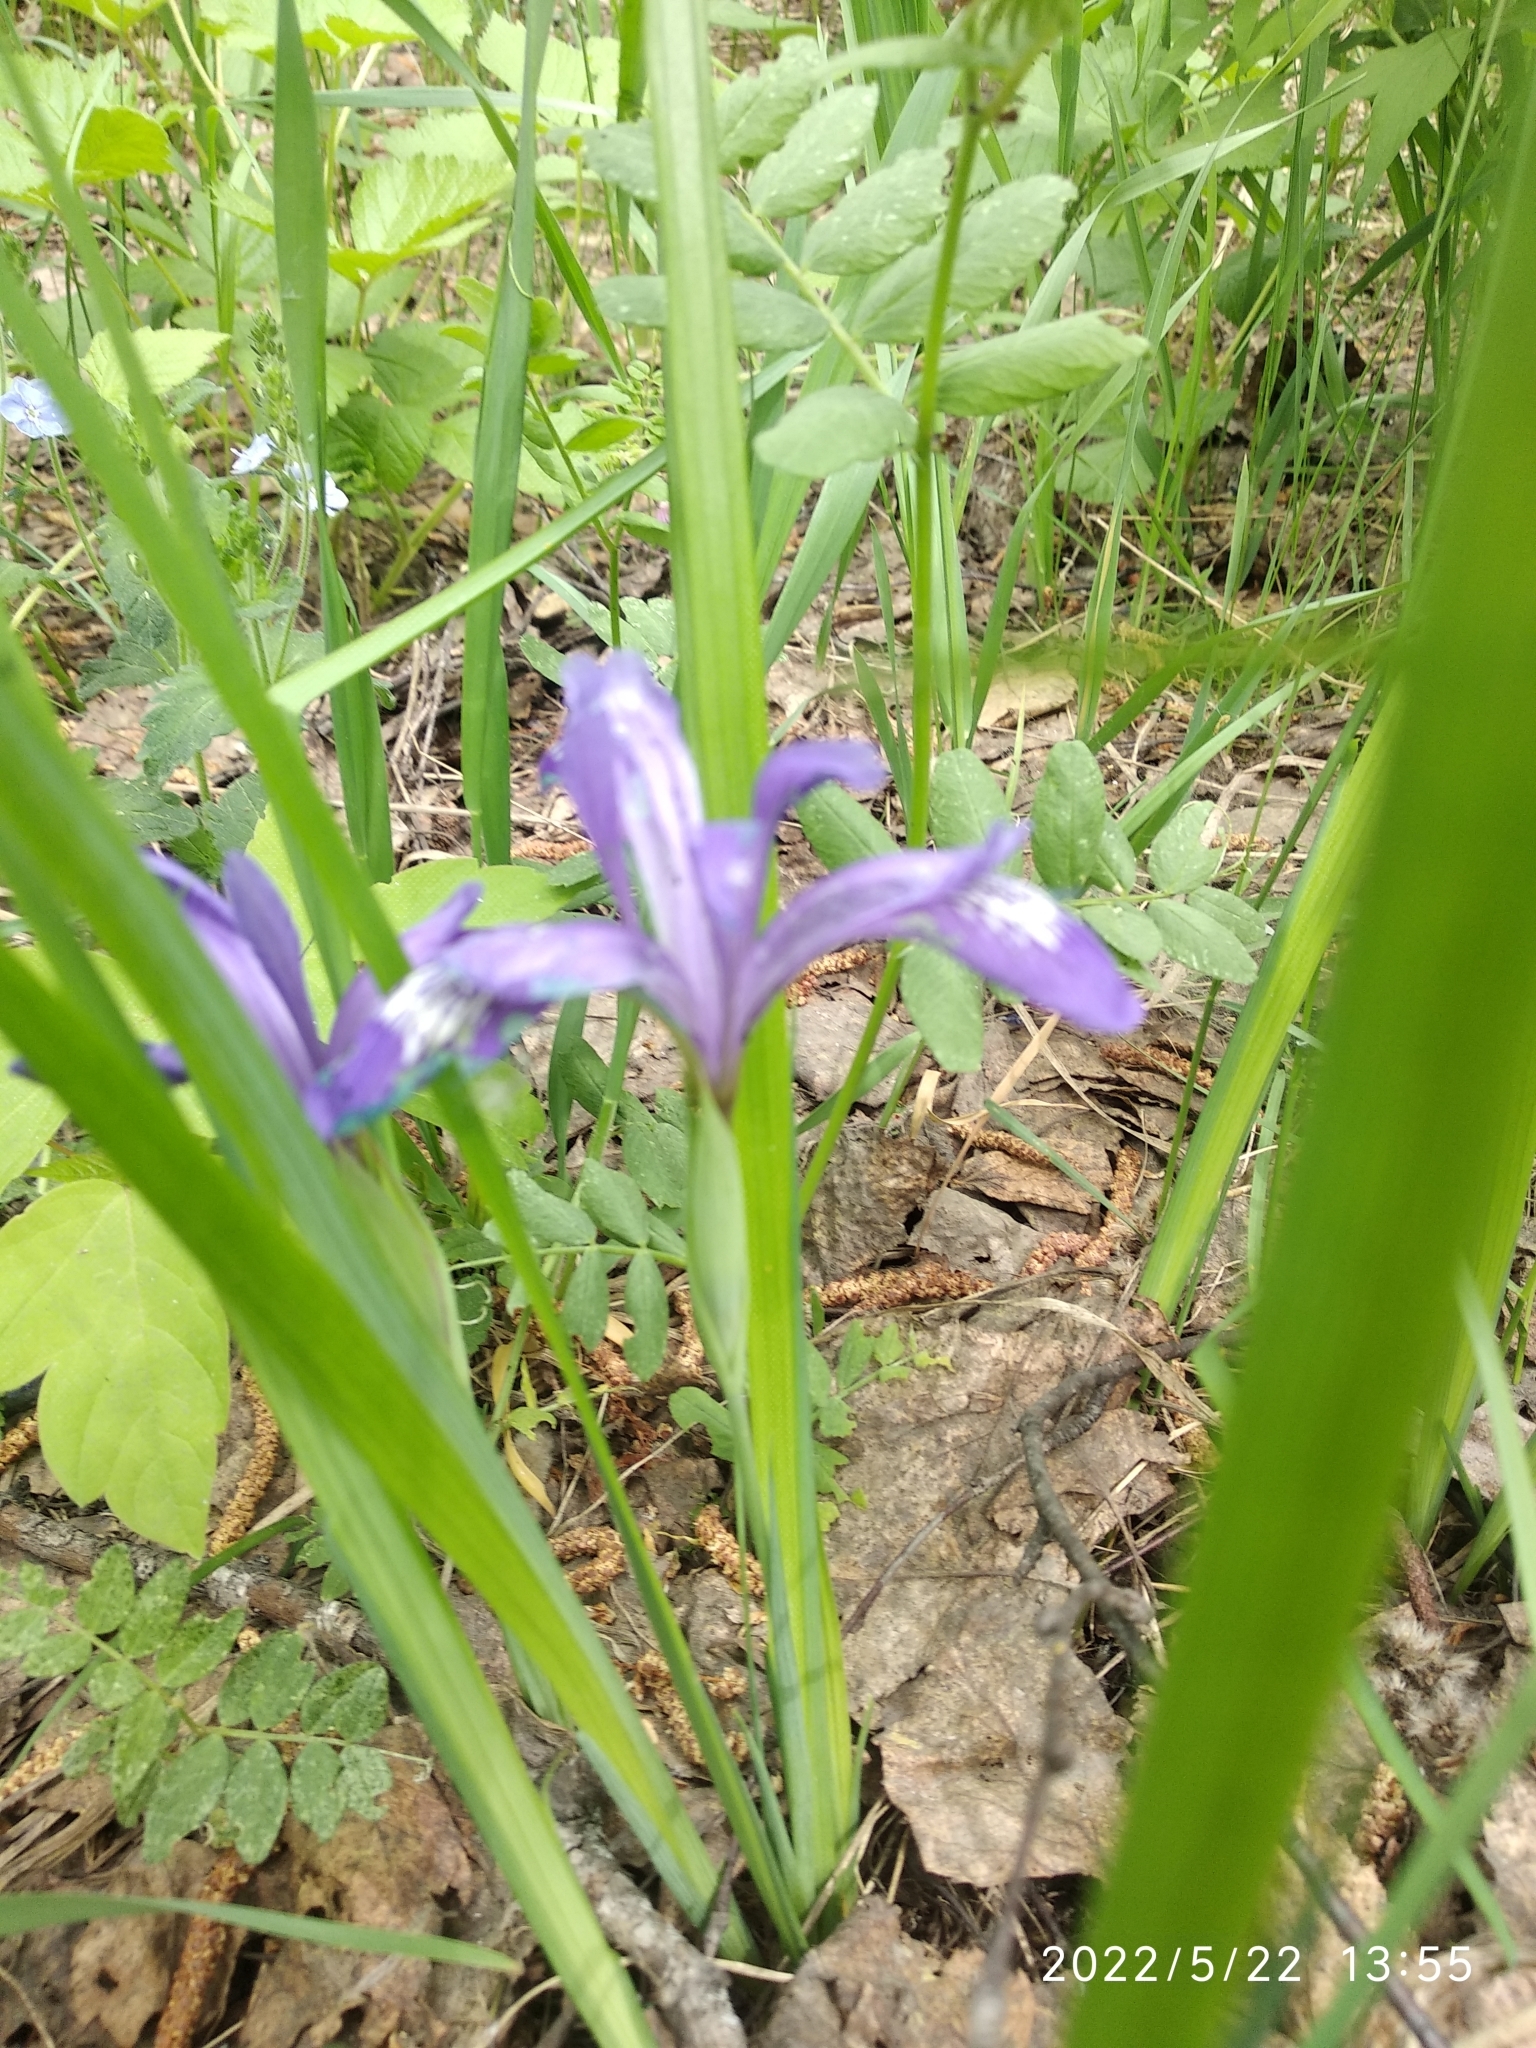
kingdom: Plantae
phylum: Tracheophyta
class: Liliopsida
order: Asparagales
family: Iridaceae
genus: Iris
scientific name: Iris ruthenica
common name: Purple-bract iris
